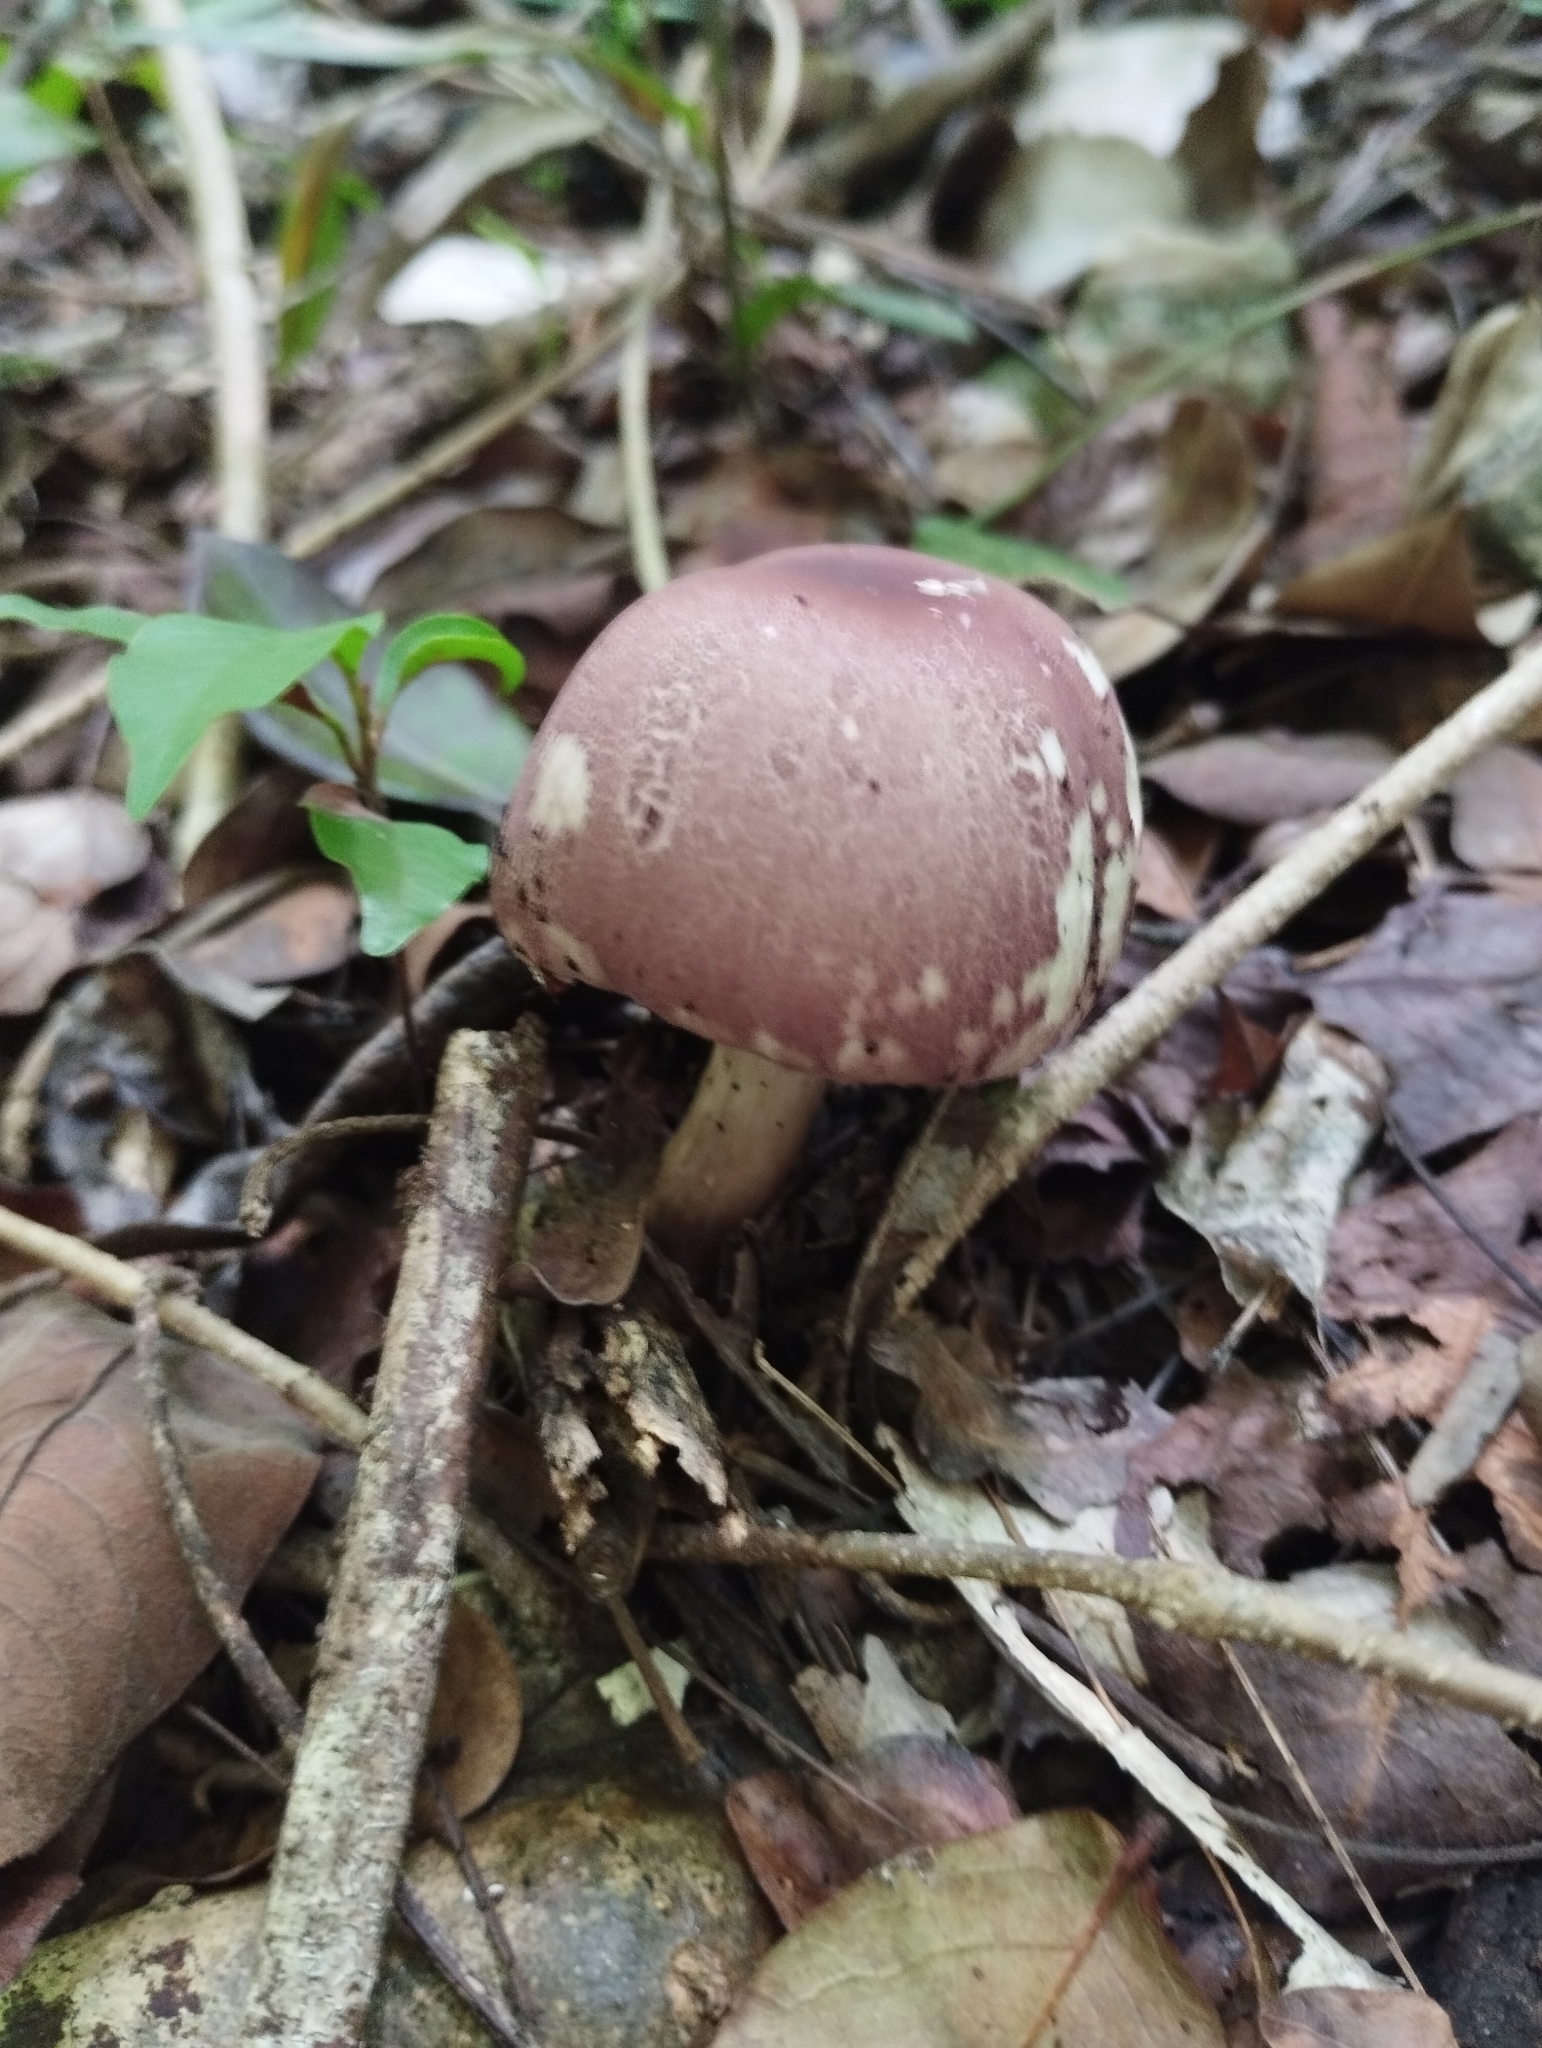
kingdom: Fungi
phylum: Basidiomycota
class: Agaricomycetes
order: Agaricales
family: Agaricaceae
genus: Leucoagaricus
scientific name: Leucoagaricus lilaceus
